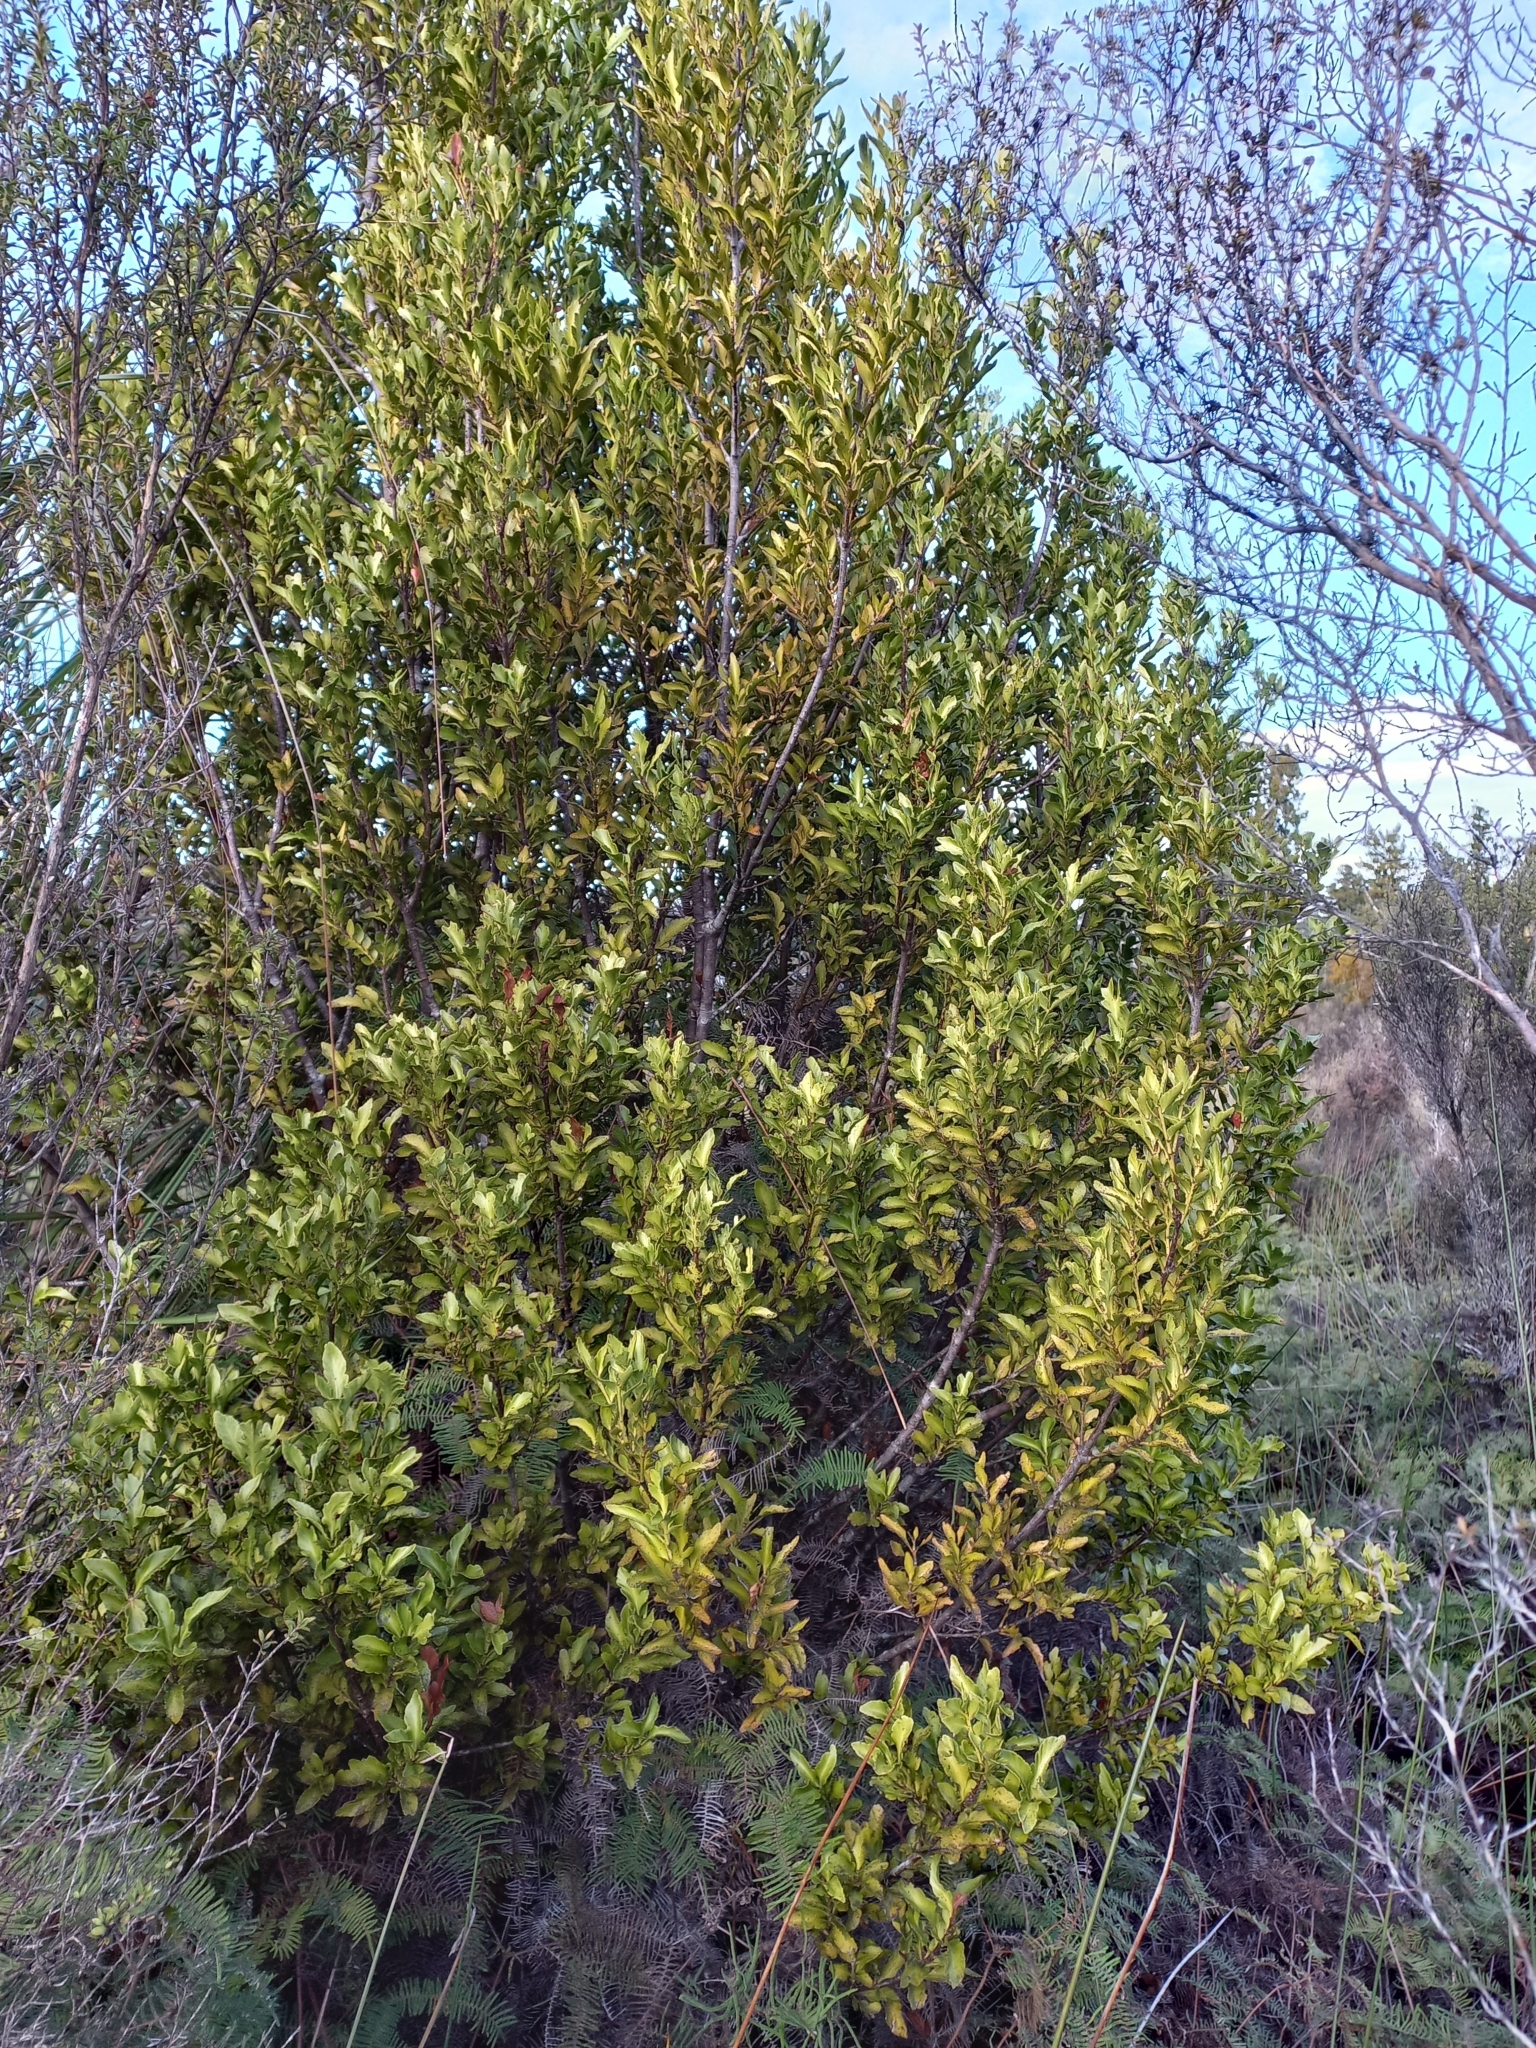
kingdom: Plantae
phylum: Tracheophyta
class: Pinopsida
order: Pinales
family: Phyllocladaceae
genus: Phyllocladus
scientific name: Phyllocladus trichomanoides
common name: Celery pine
